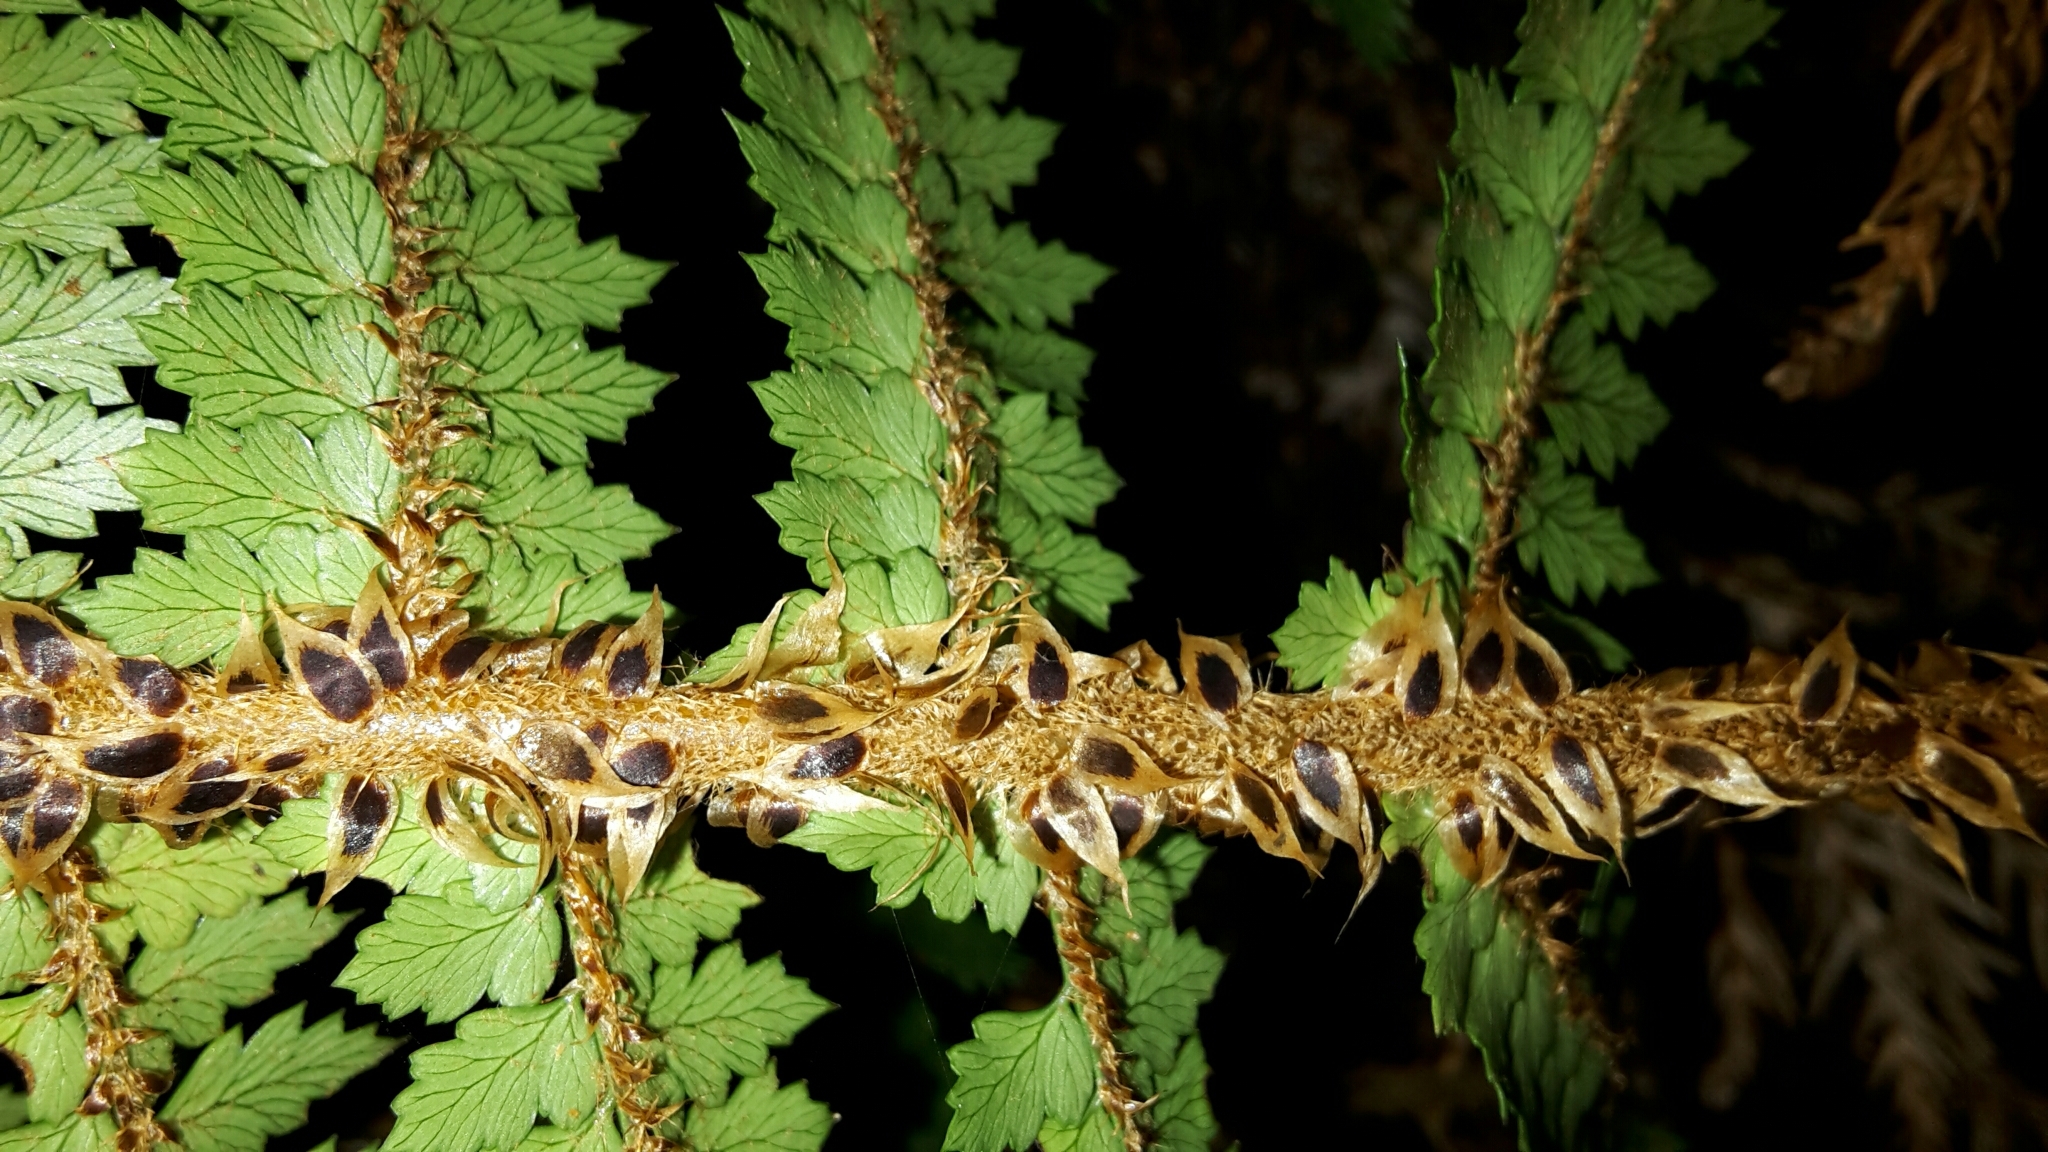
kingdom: Plantae
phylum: Tracheophyta
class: Polypodiopsida
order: Polypodiales
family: Dryopteridaceae
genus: Polystichum
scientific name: Polystichum vestitum
